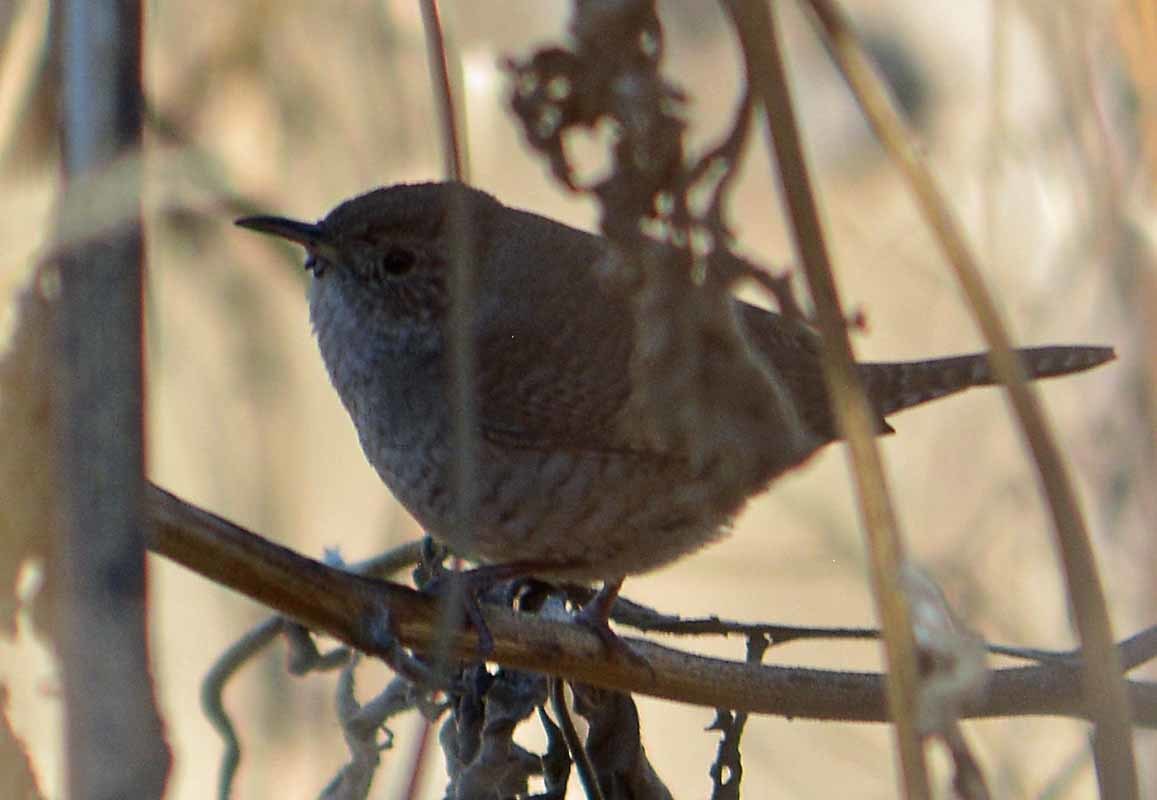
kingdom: Animalia
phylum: Chordata
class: Aves
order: Passeriformes
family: Troglodytidae
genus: Troglodytes
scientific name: Troglodytes aedon
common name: House wren
